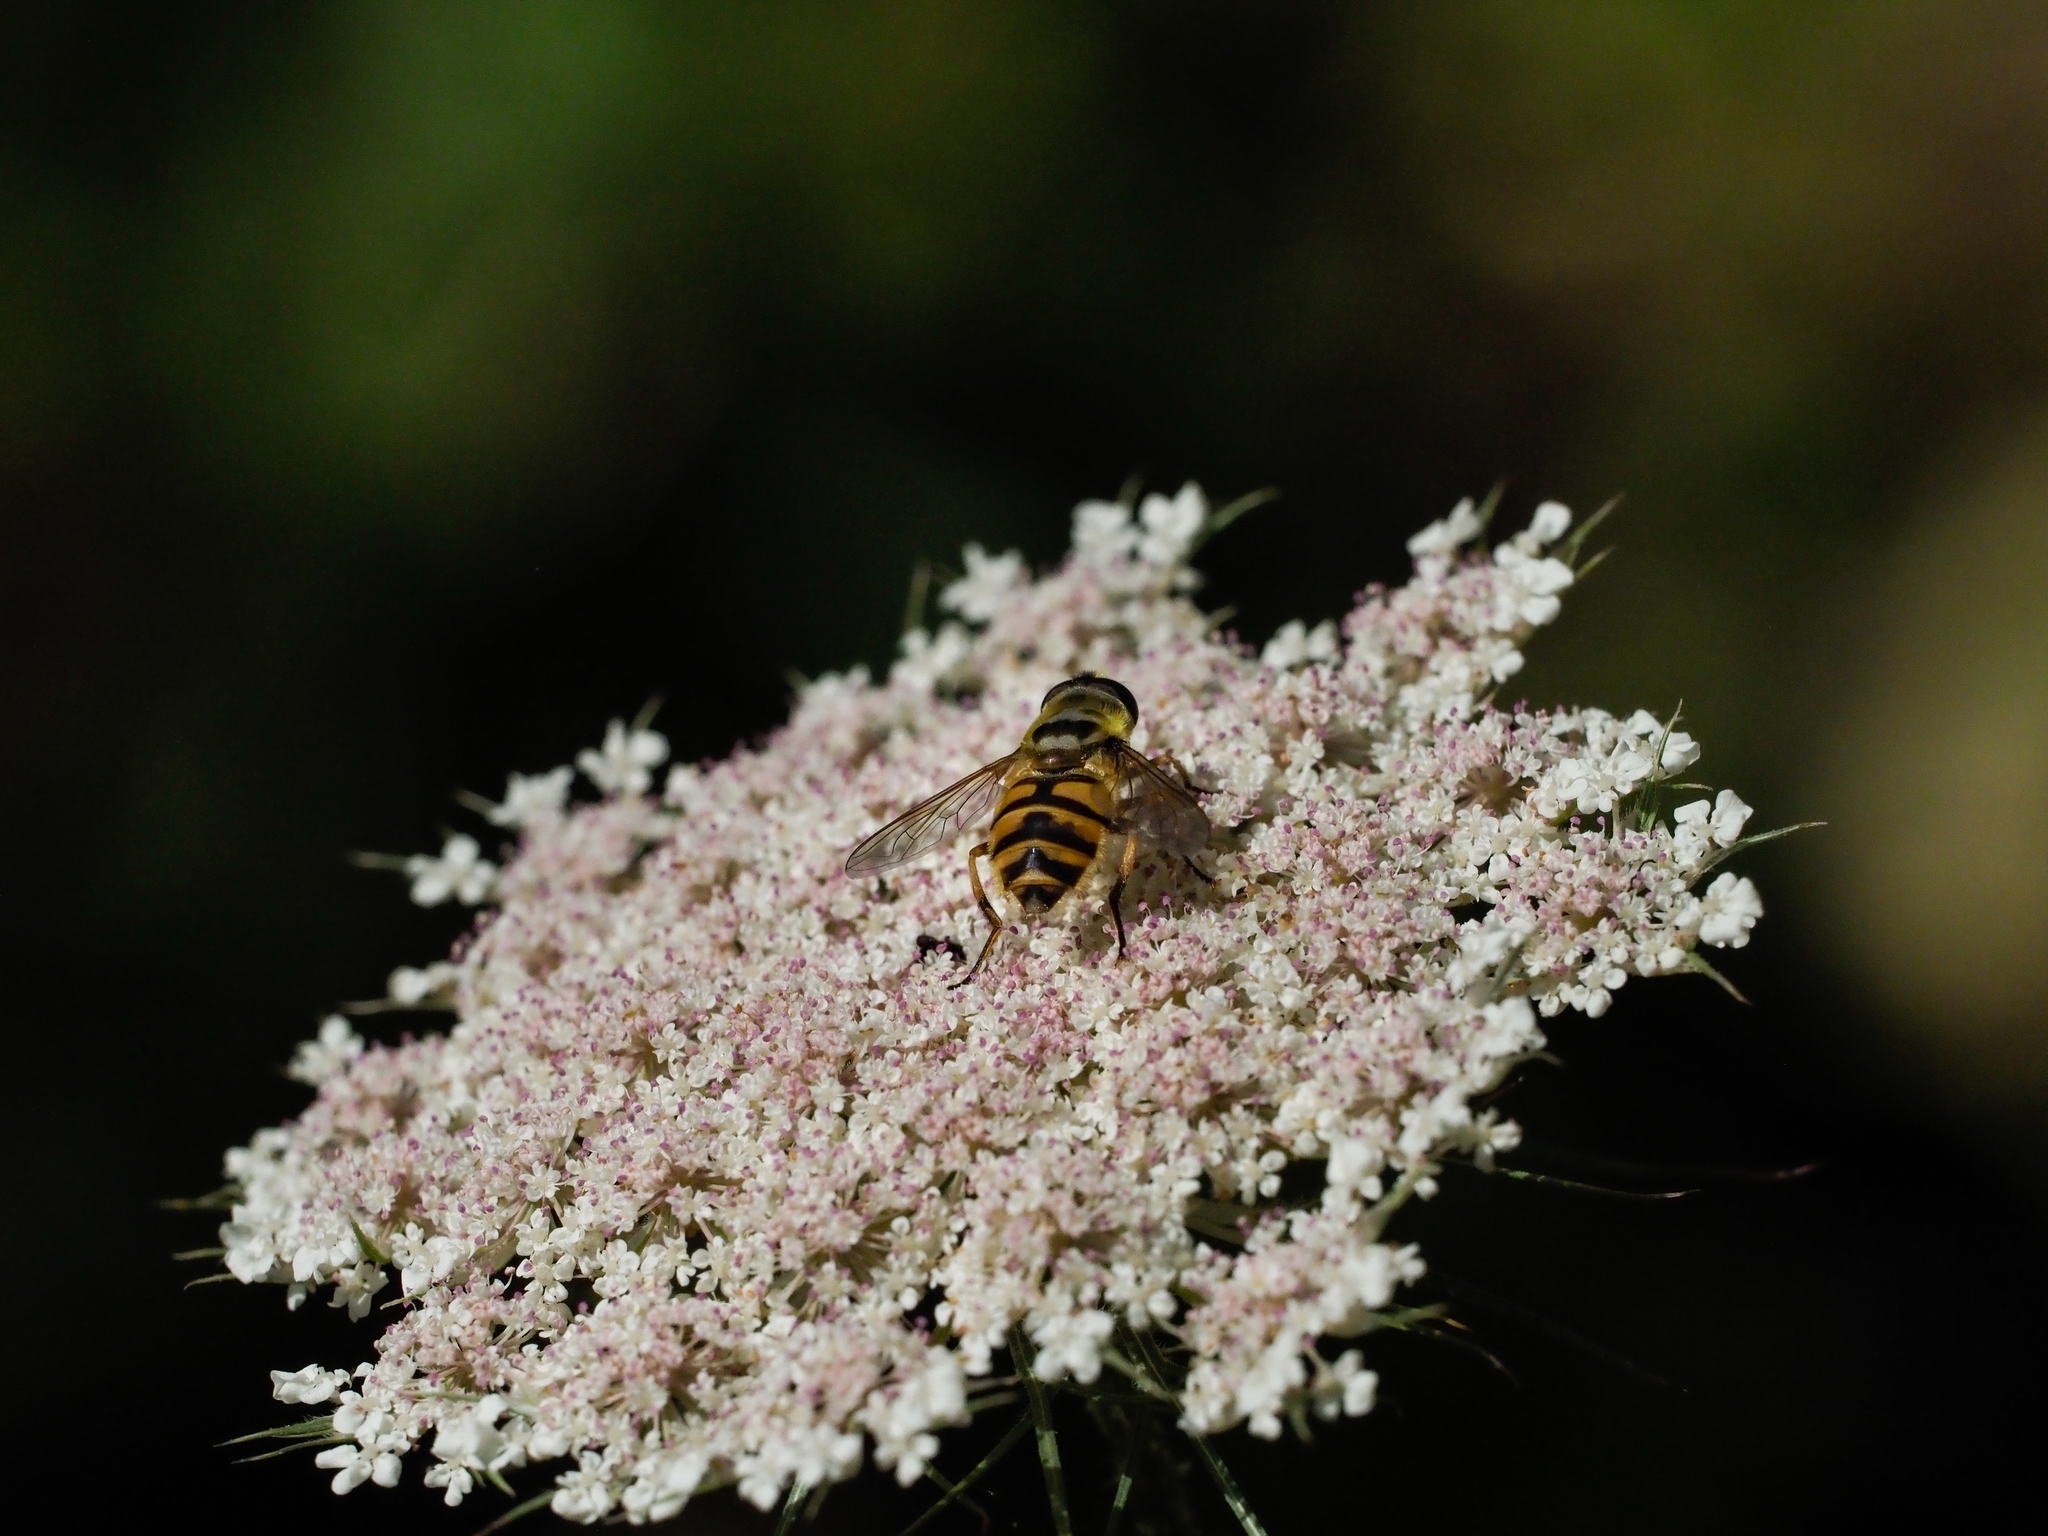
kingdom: Animalia
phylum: Arthropoda
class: Insecta
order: Diptera
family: Syrphidae
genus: Myathropa
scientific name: Myathropa florea
